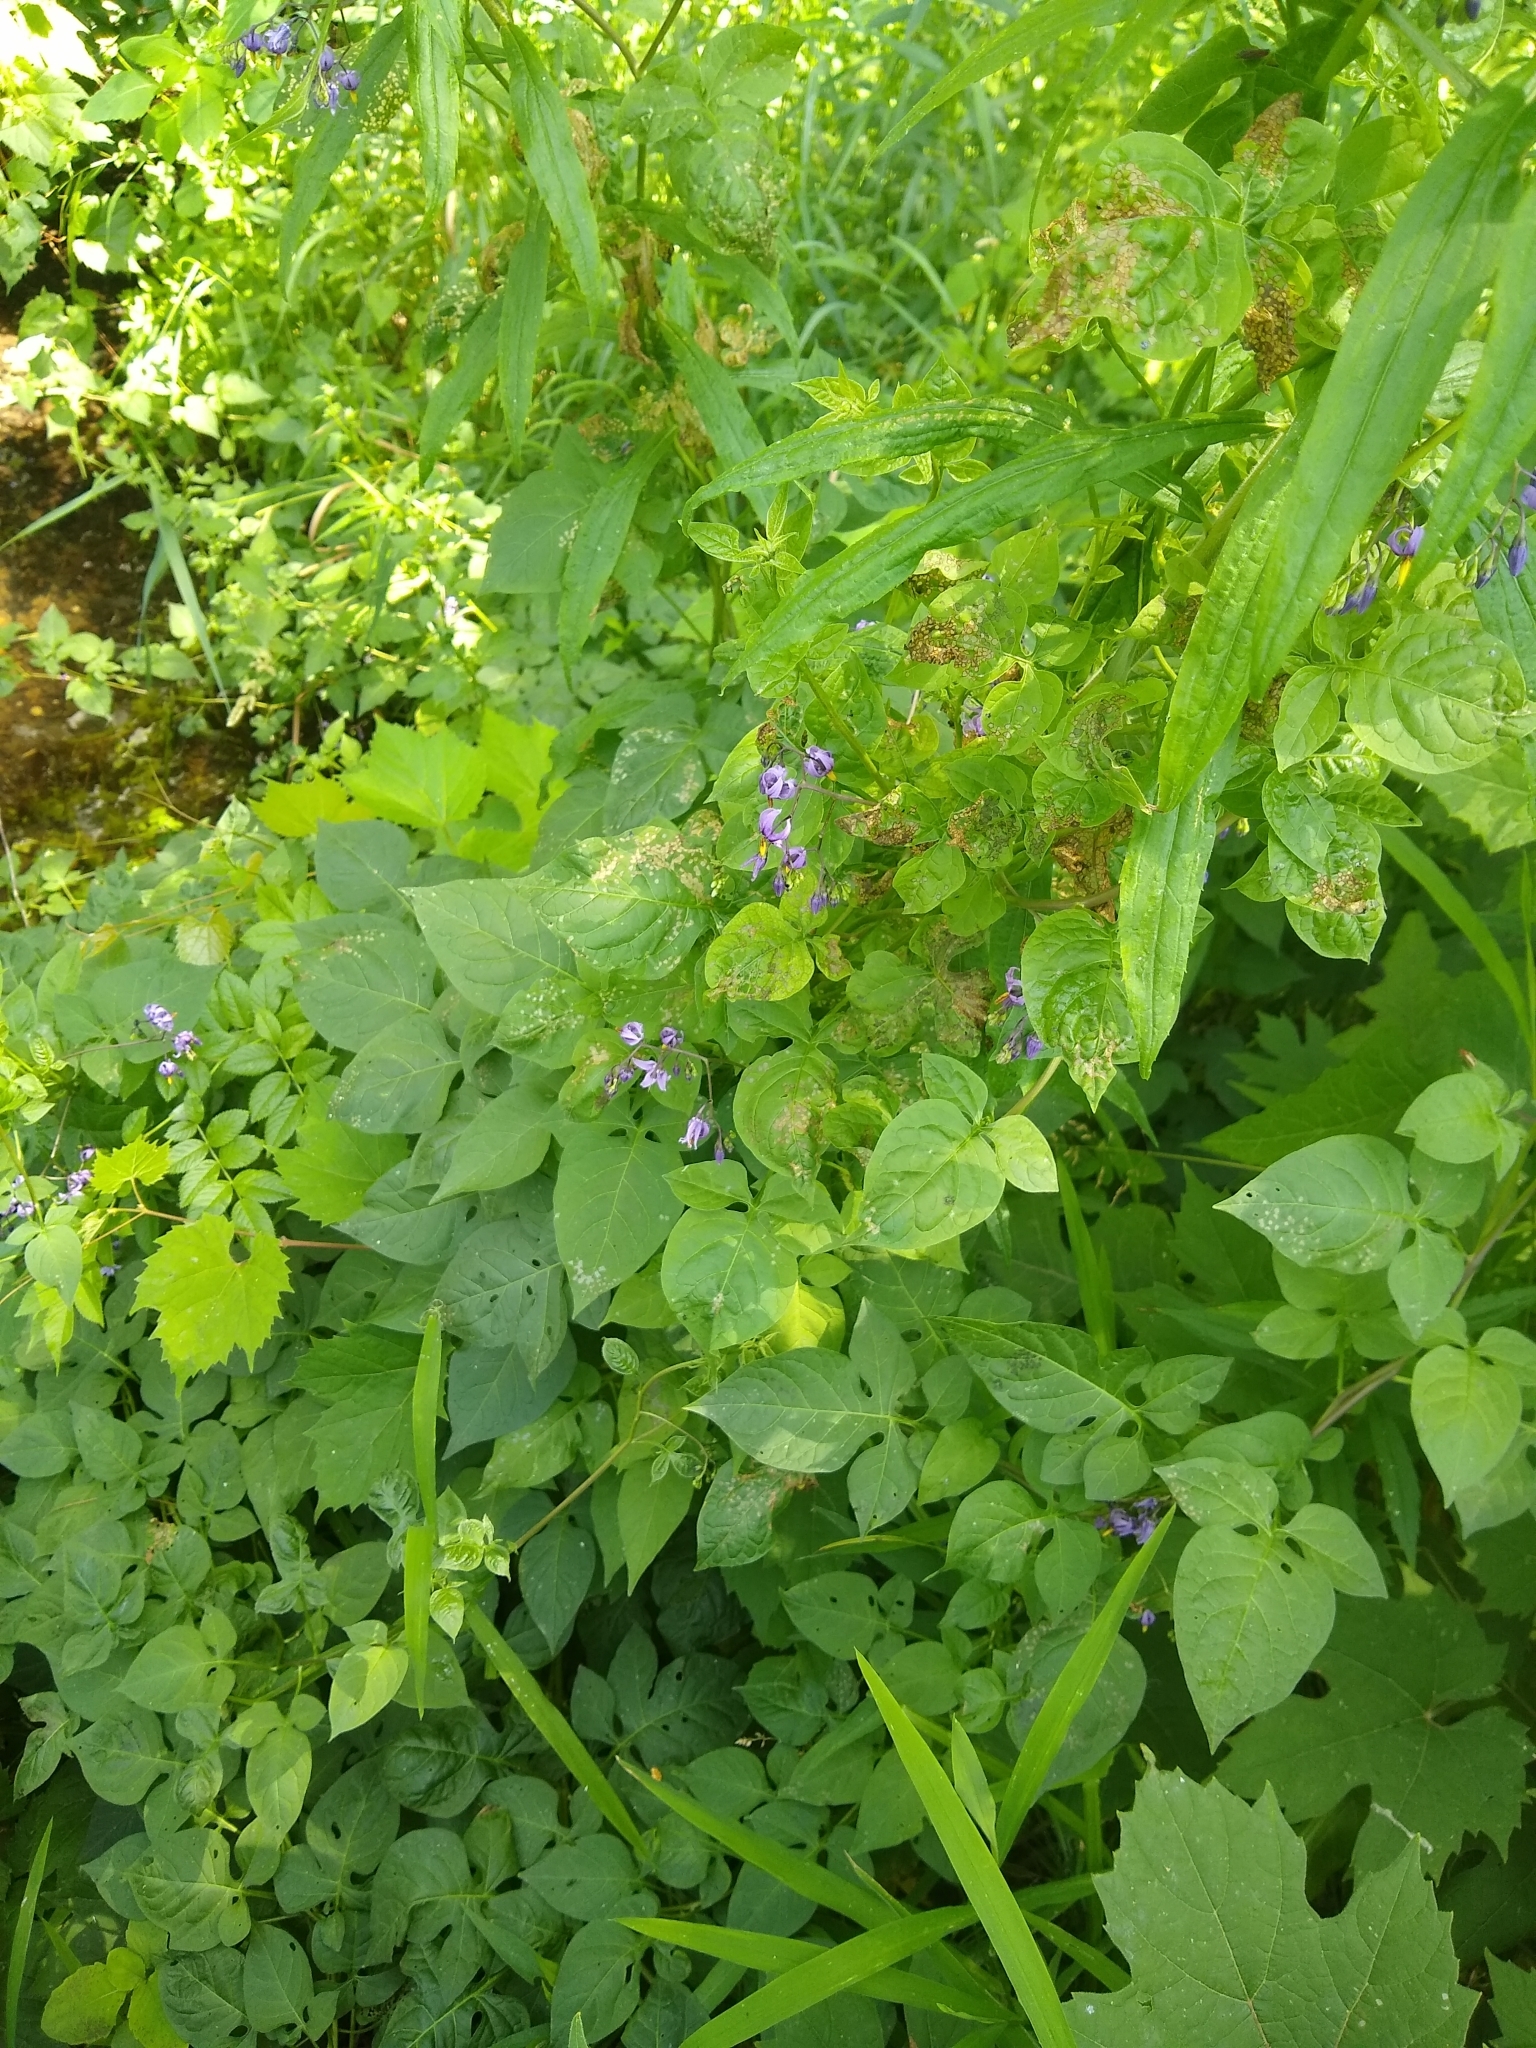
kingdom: Plantae
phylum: Tracheophyta
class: Magnoliopsida
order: Solanales
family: Solanaceae
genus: Solanum
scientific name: Solanum dulcamara
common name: Climbing nightshade
